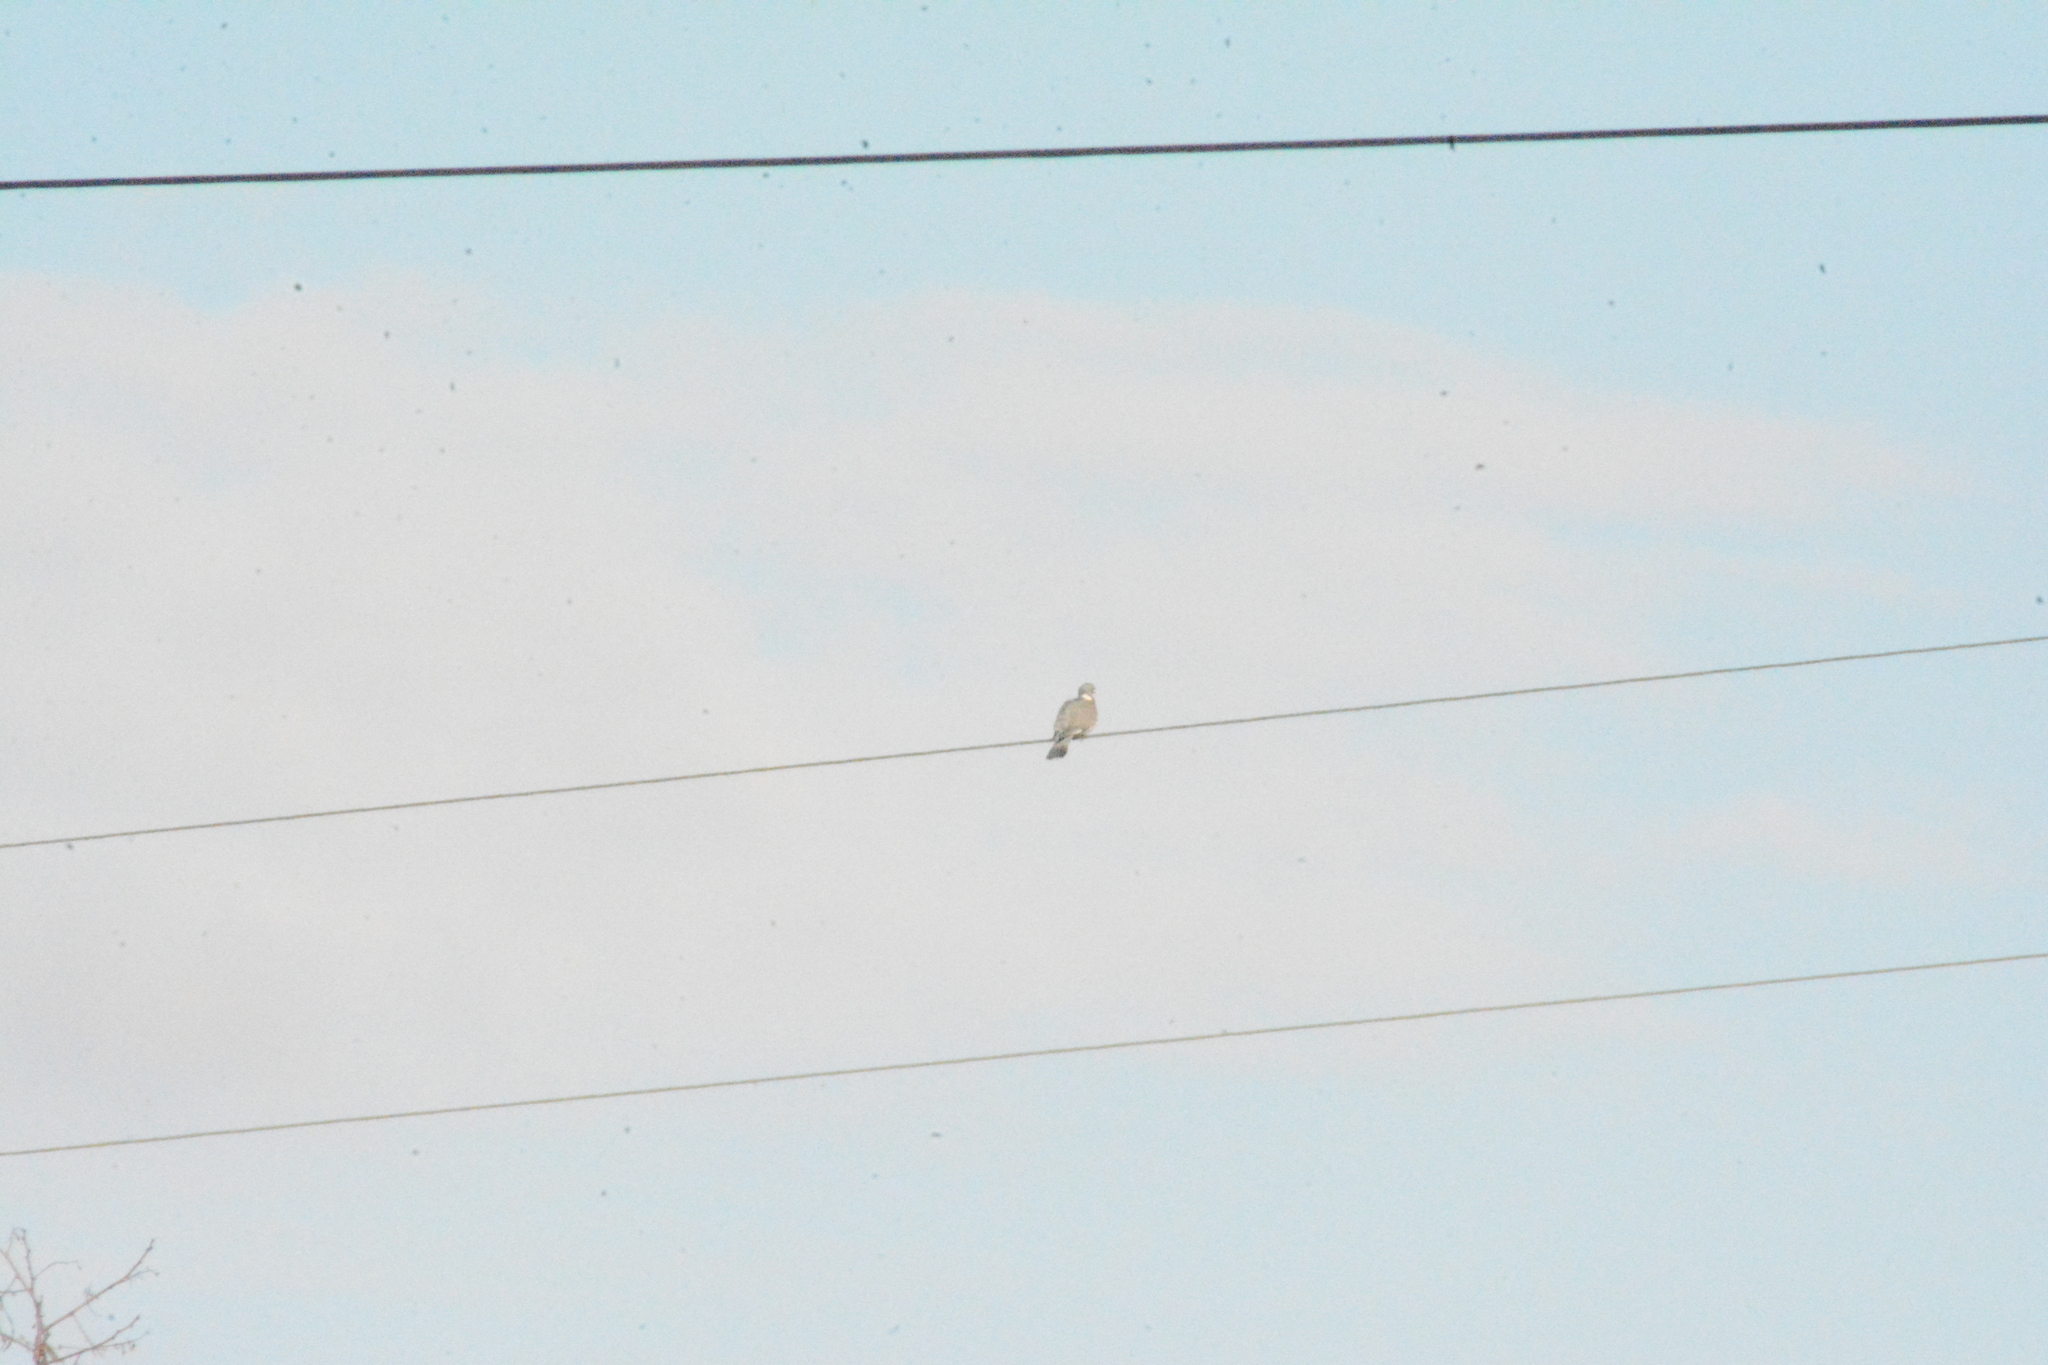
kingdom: Animalia
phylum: Chordata
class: Aves
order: Columbiformes
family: Columbidae
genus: Columba
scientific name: Columba palumbus
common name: Common wood pigeon
